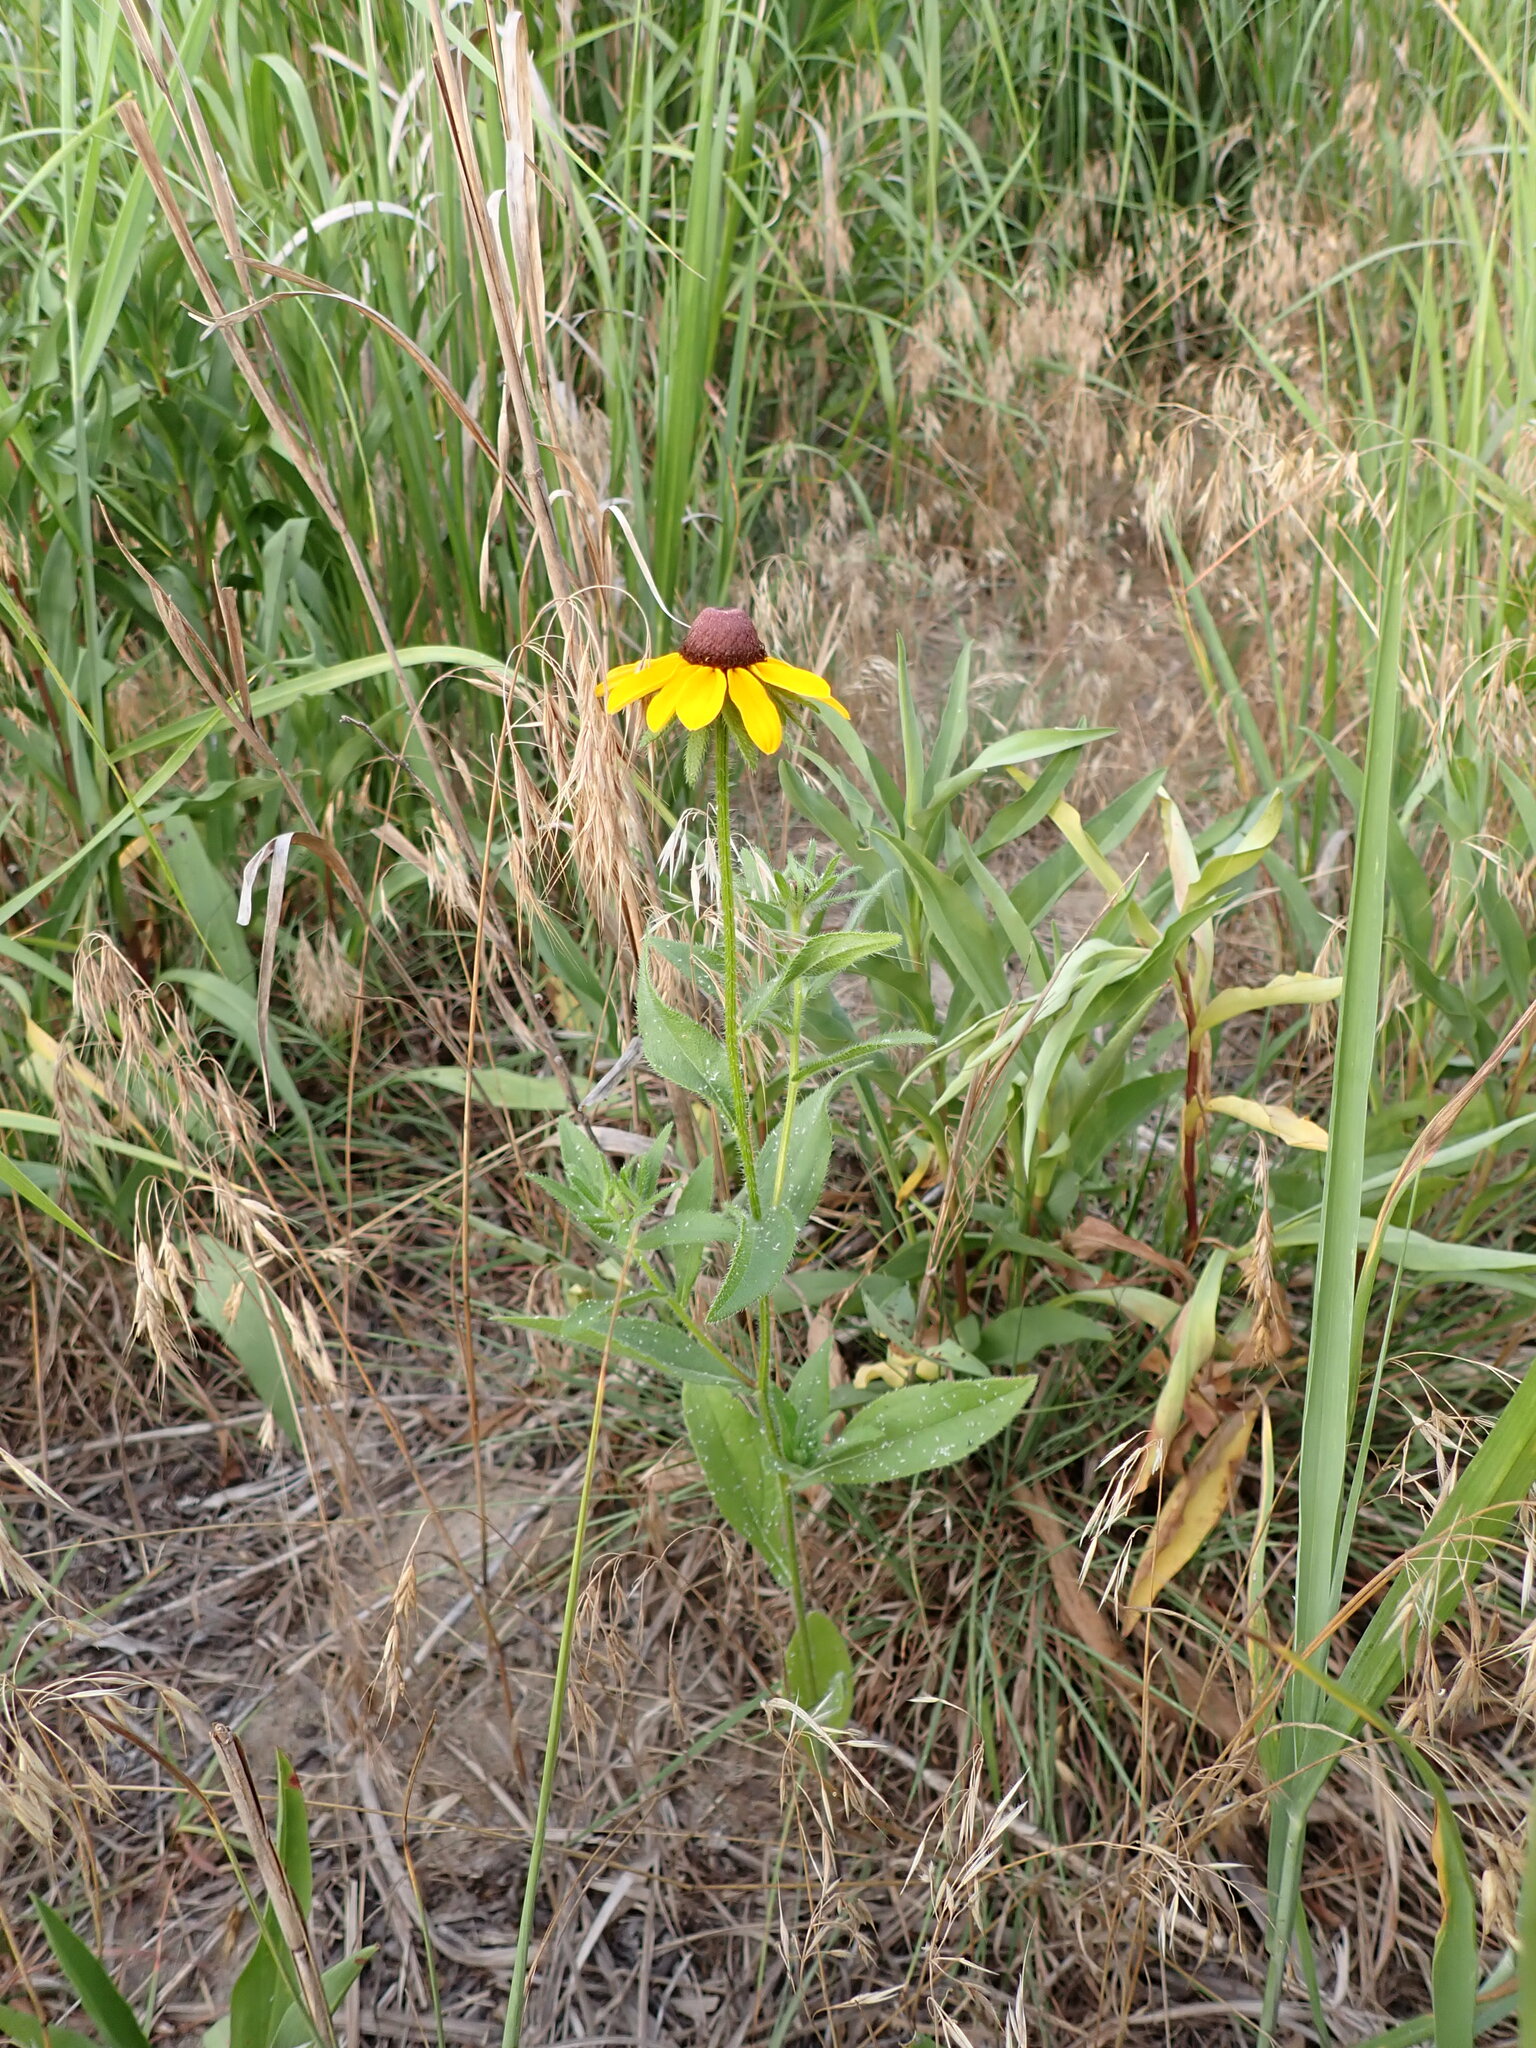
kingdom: Plantae
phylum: Tracheophyta
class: Magnoliopsida
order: Asterales
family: Asteraceae
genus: Rudbeckia
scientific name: Rudbeckia hirta
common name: Black-eyed-susan
